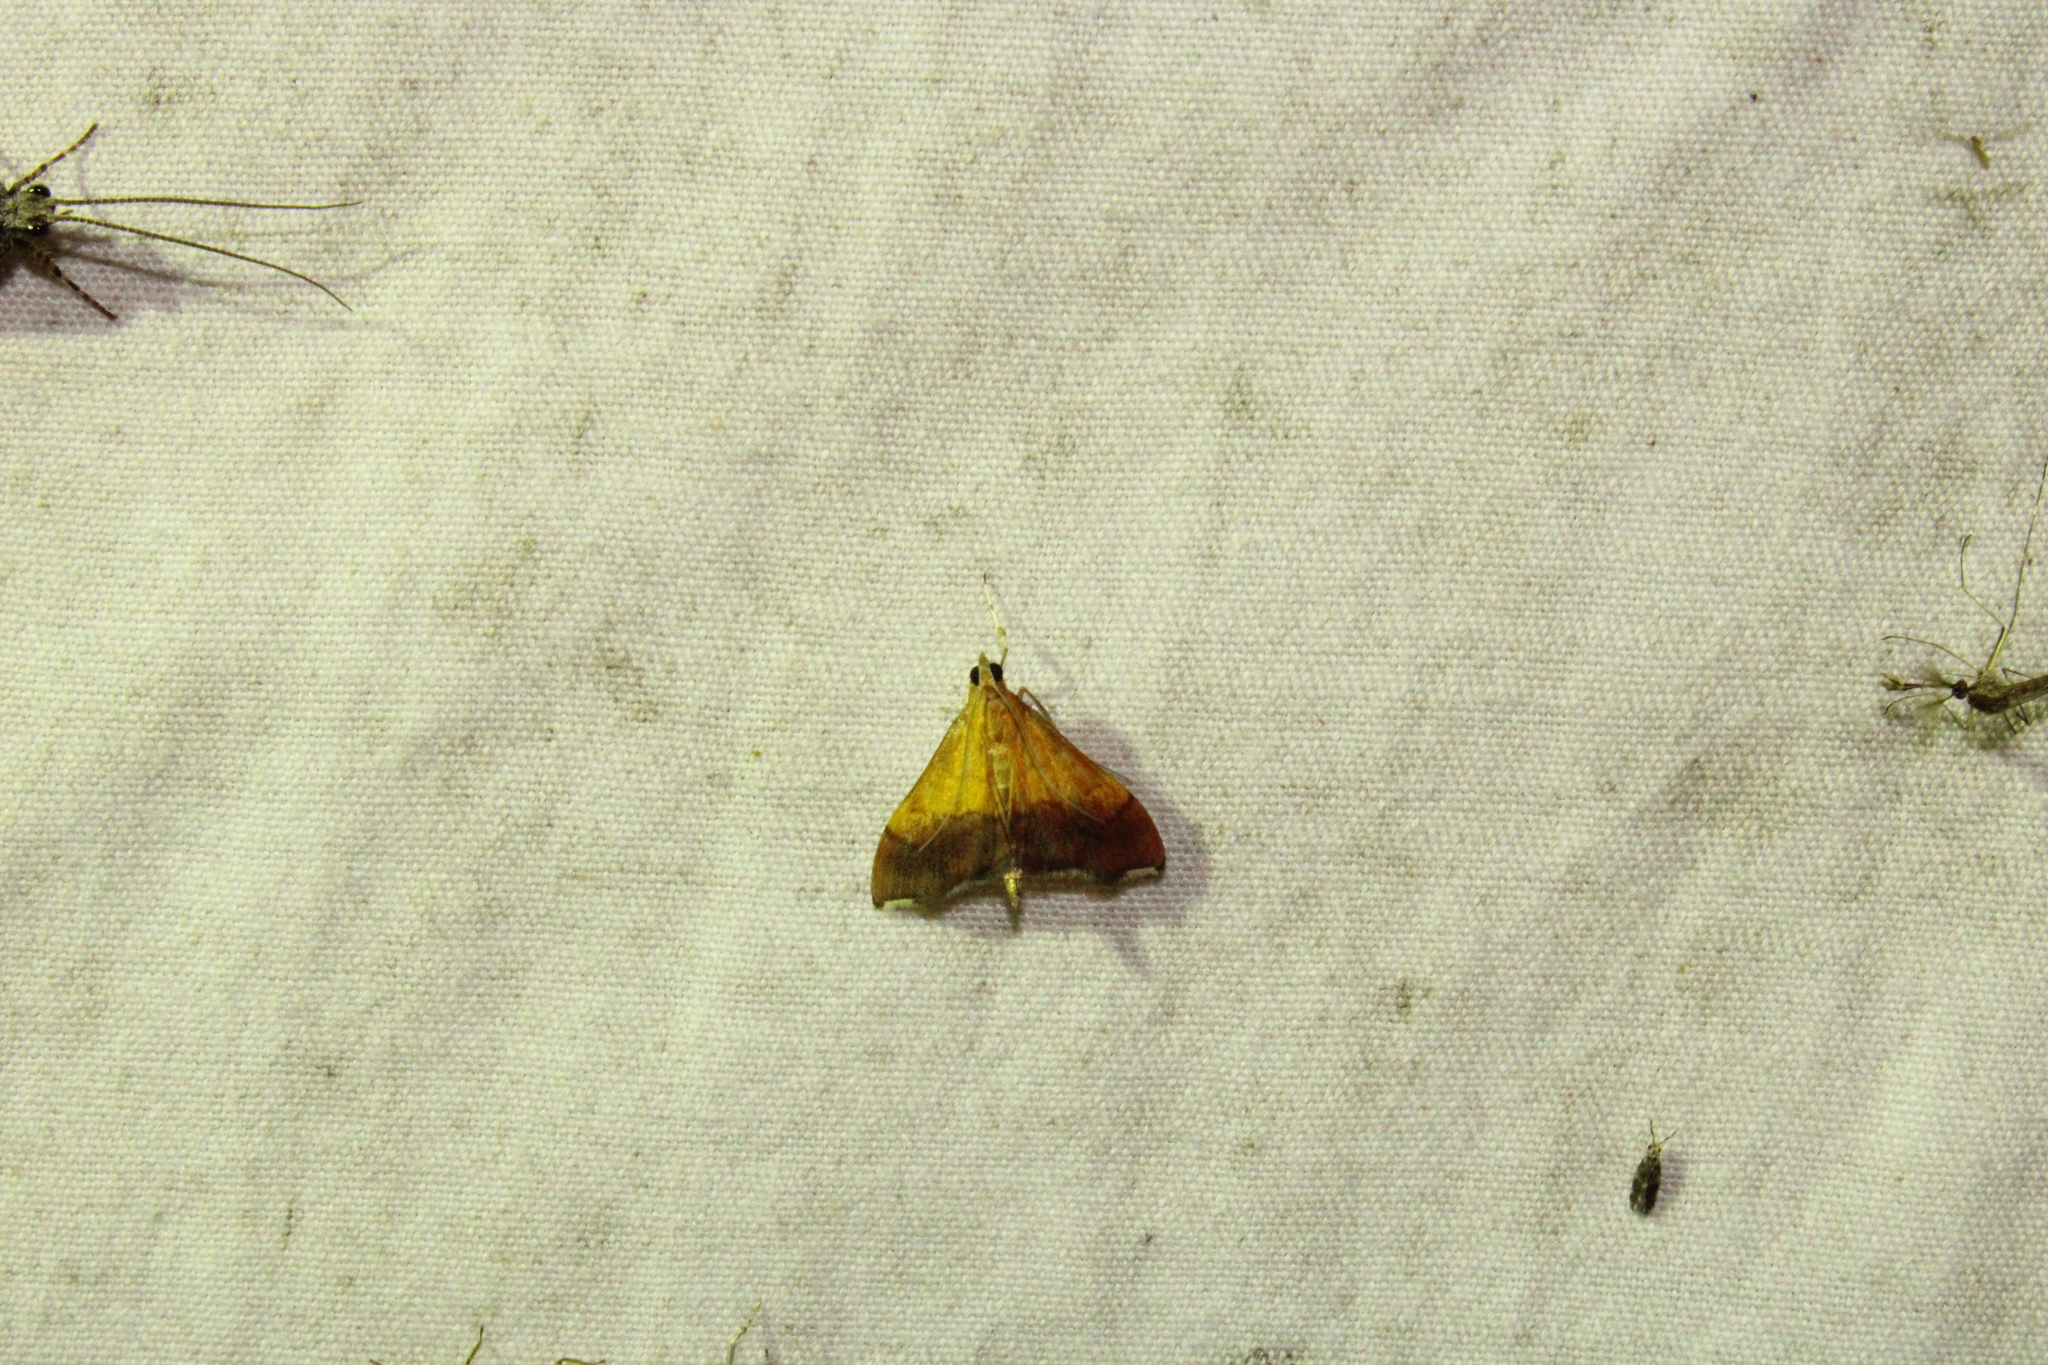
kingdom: Animalia
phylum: Arthropoda
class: Insecta
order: Lepidoptera
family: Crambidae
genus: Pyrausta
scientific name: Pyrausta bicoloralis
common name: Bicolored pyrausta moth
